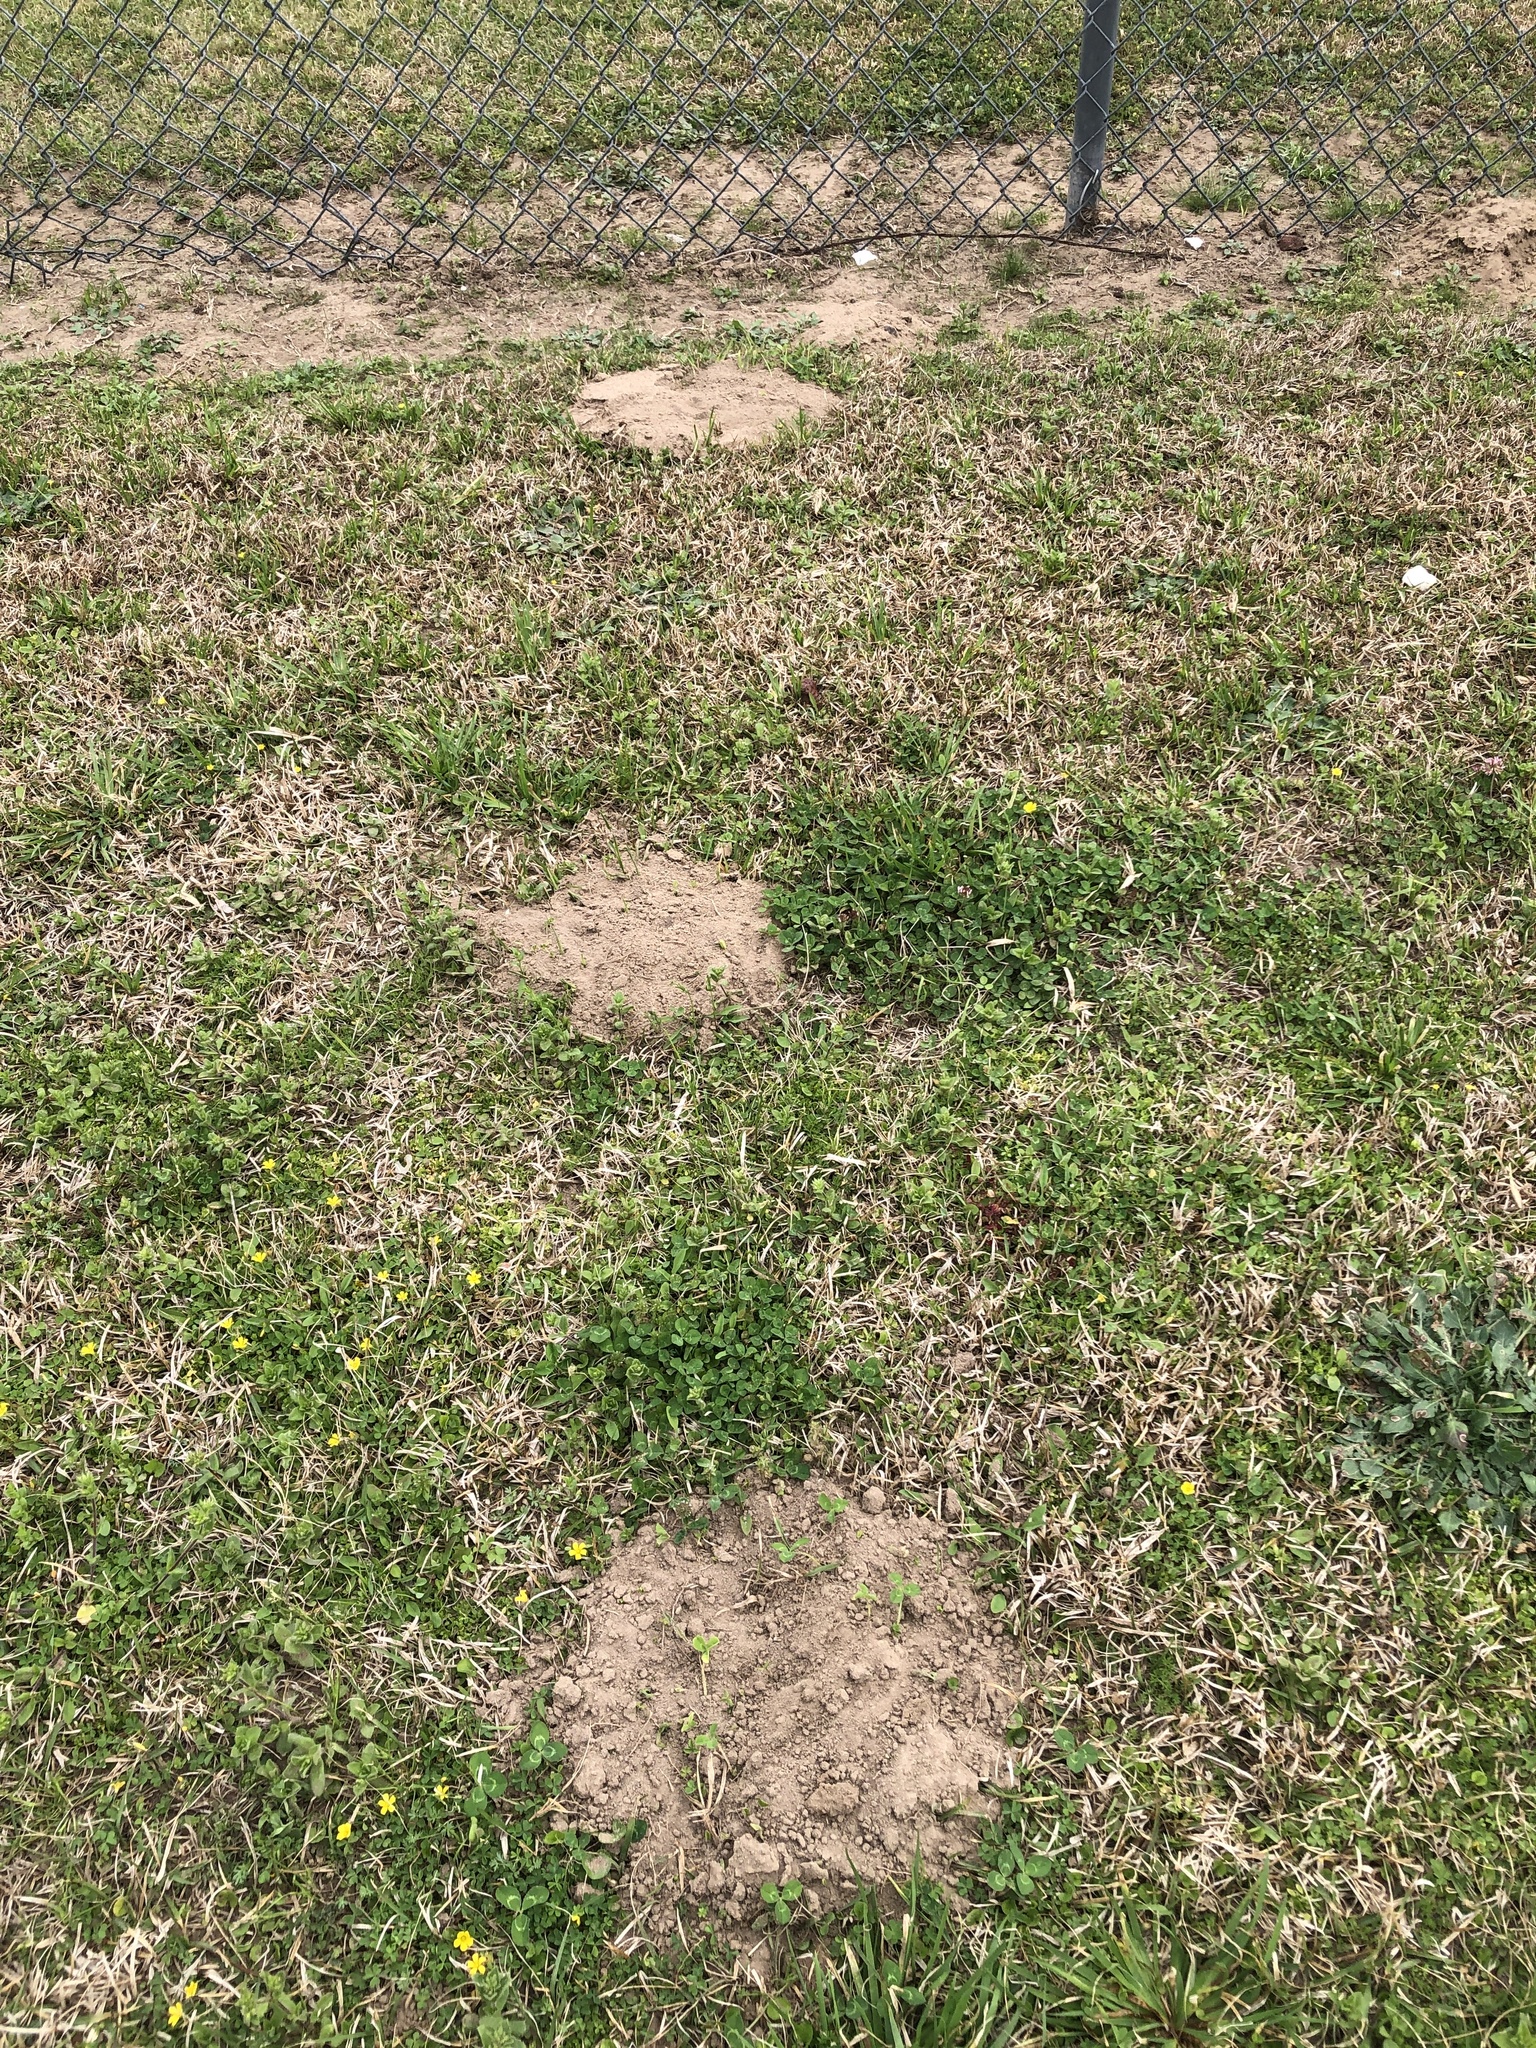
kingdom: Animalia
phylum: Chordata
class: Mammalia
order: Rodentia
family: Geomyidae
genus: Geomys
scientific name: Geomys breviceps
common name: Baird's pocket gopher
